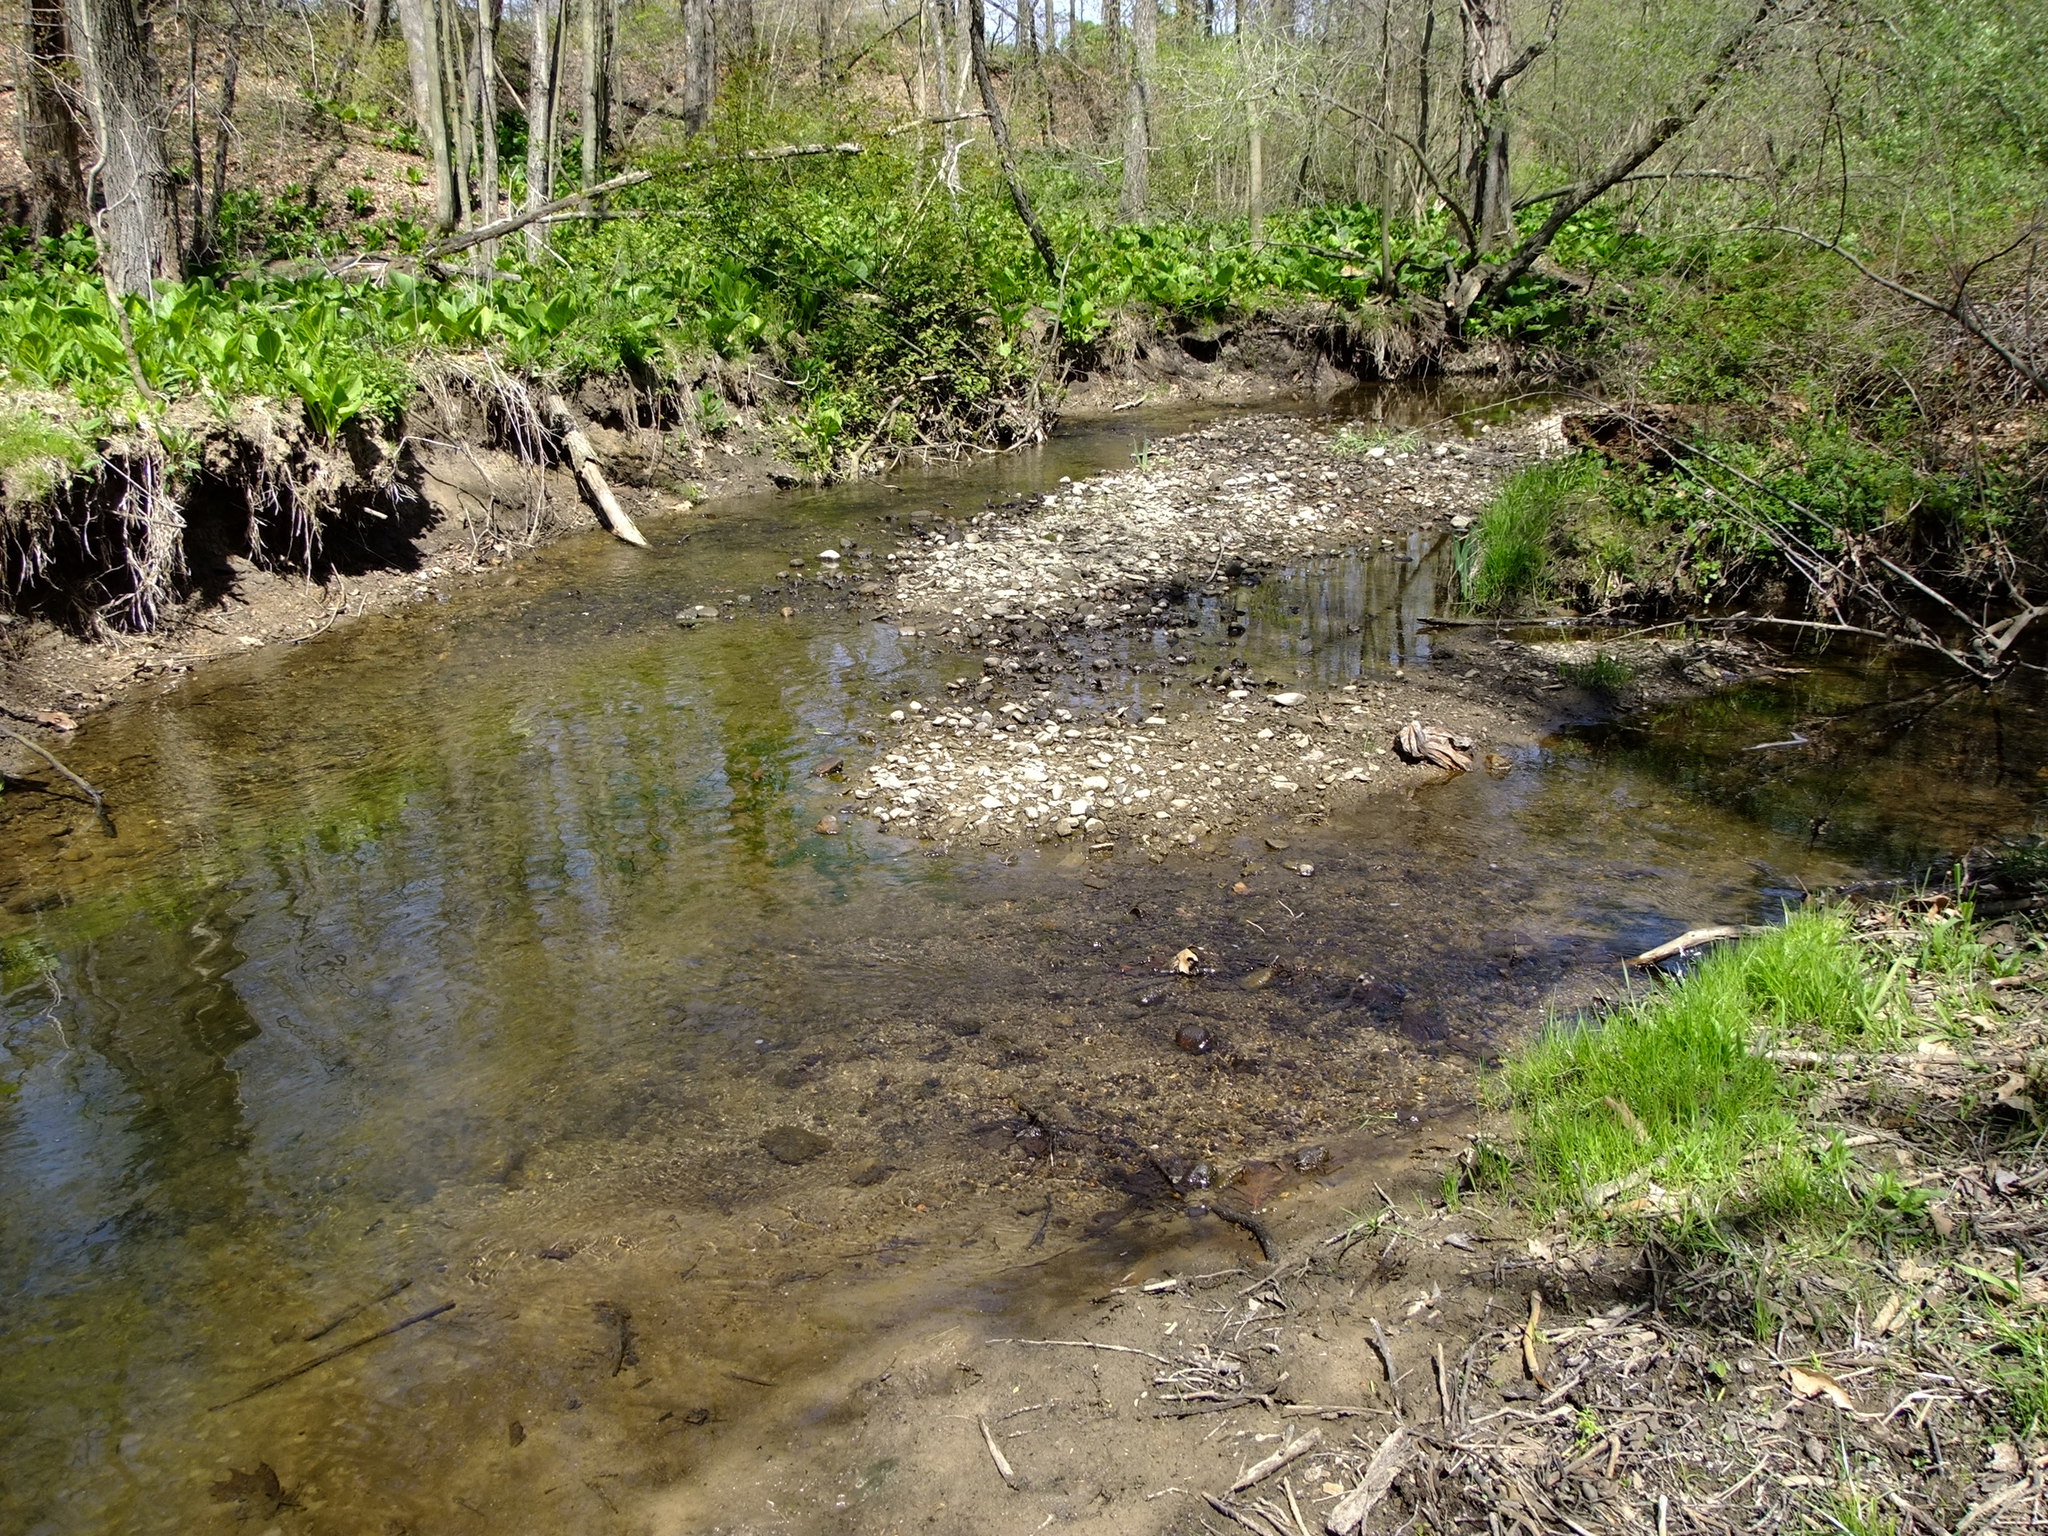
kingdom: Plantae
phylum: Tracheophyta
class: Liliopsida
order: Alismatales
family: Araceae
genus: Symplocarpus
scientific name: Symplocarpus foetidus
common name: Eastern skunk cabbage
